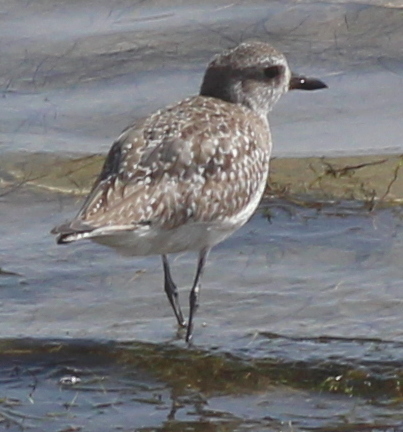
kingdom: Animalia
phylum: Chordata
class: Aves
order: Charadriiformes
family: Charadriidae
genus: Pluvialis
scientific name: Pluvialis squatarola
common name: Grey plover
